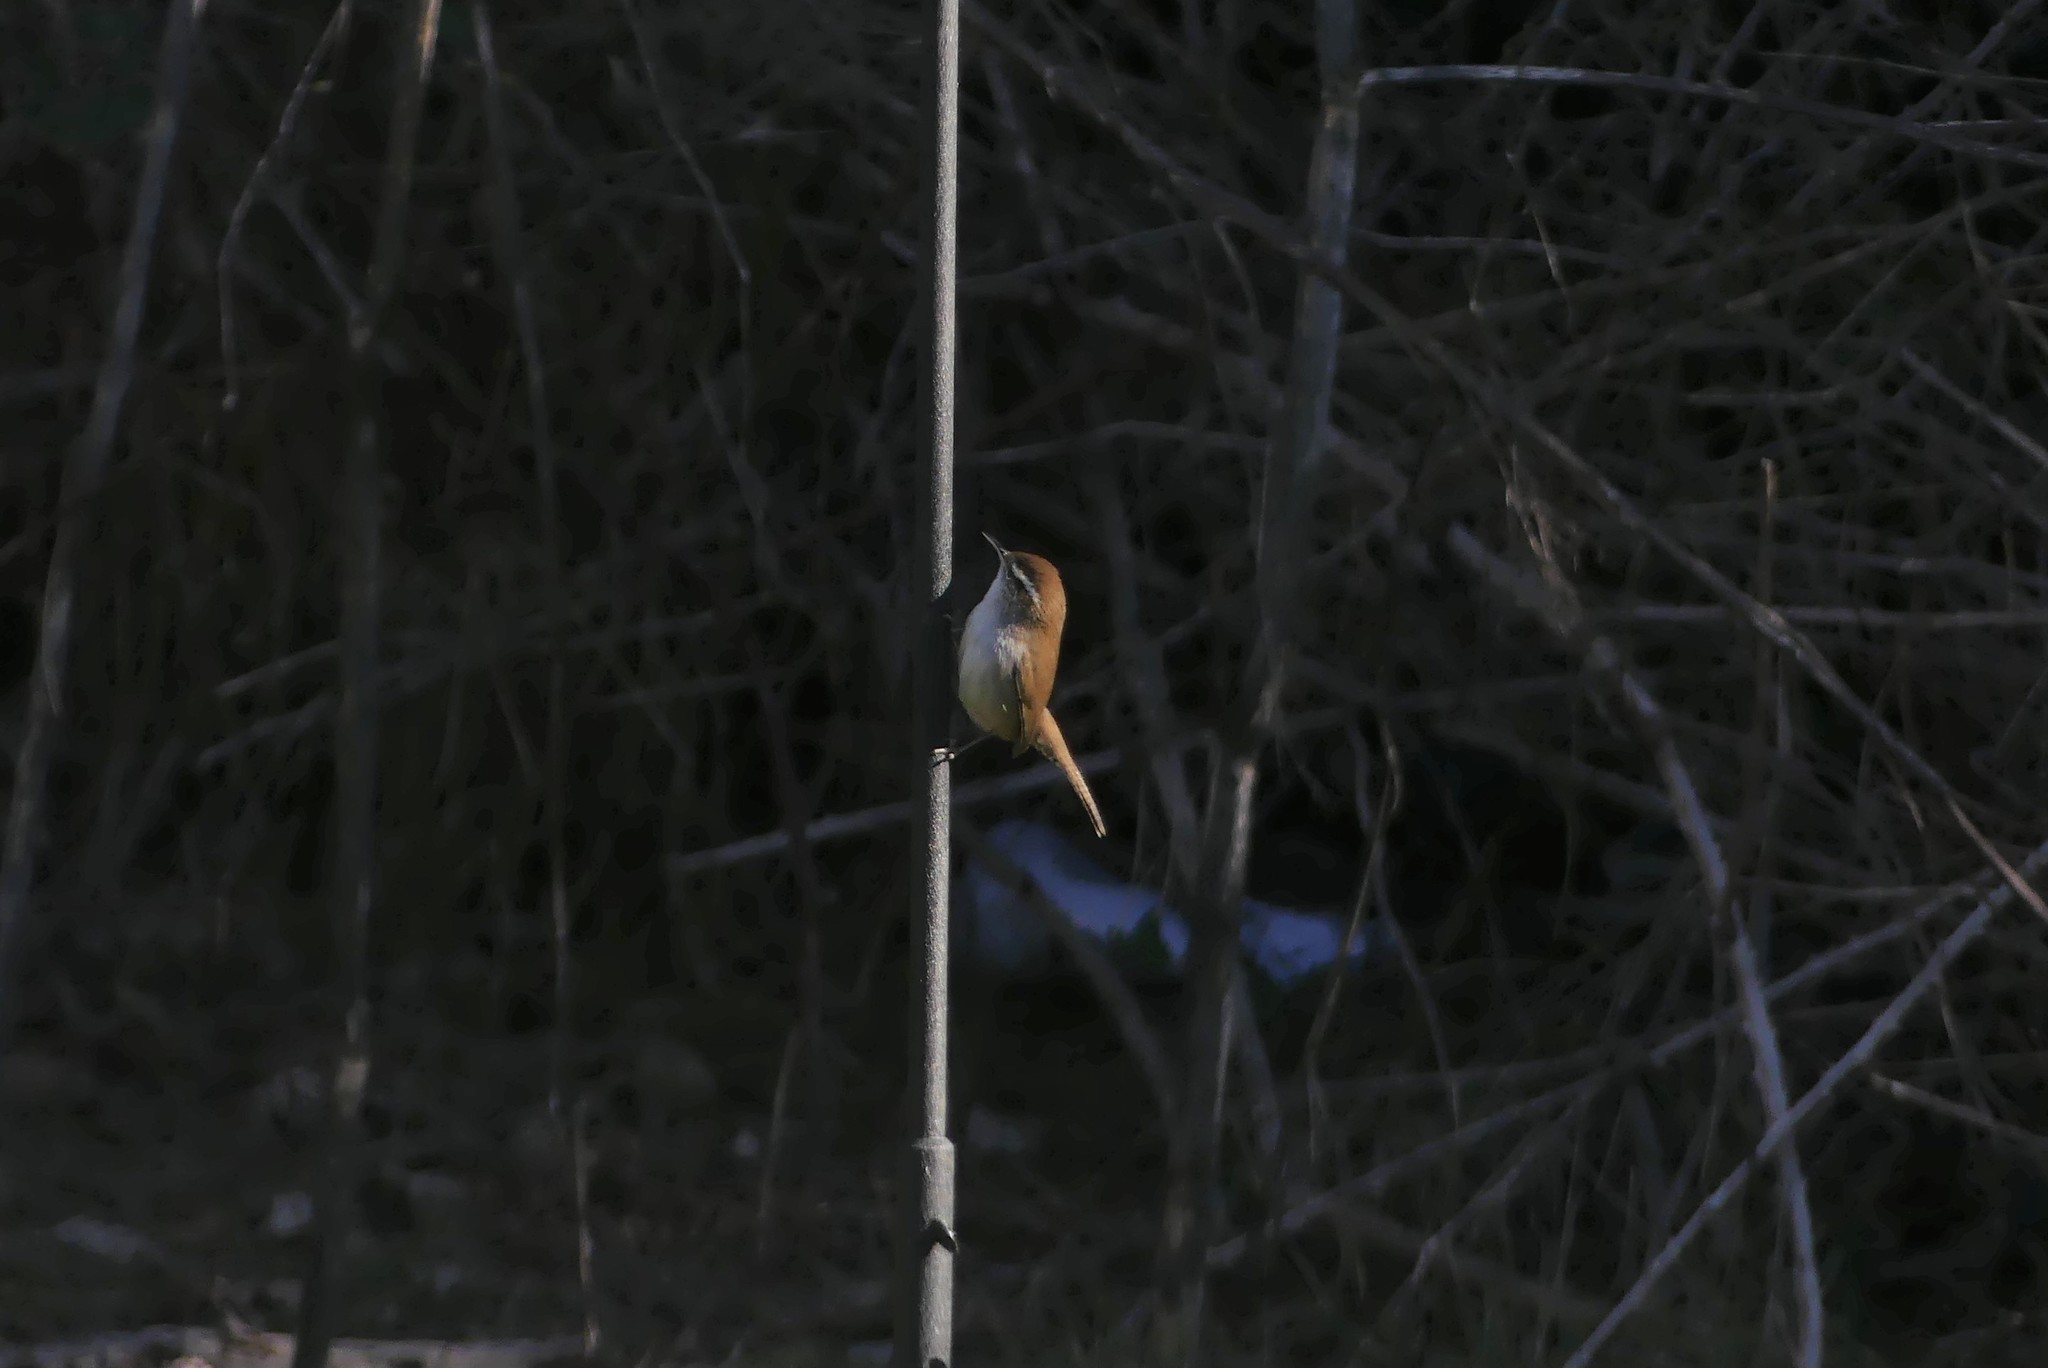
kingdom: Animalia
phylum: Chordata
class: Aves
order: Passeriformes
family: Troglodytidae
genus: Thryomanes
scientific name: Thryomanes bewickii
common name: Bewick's wren
